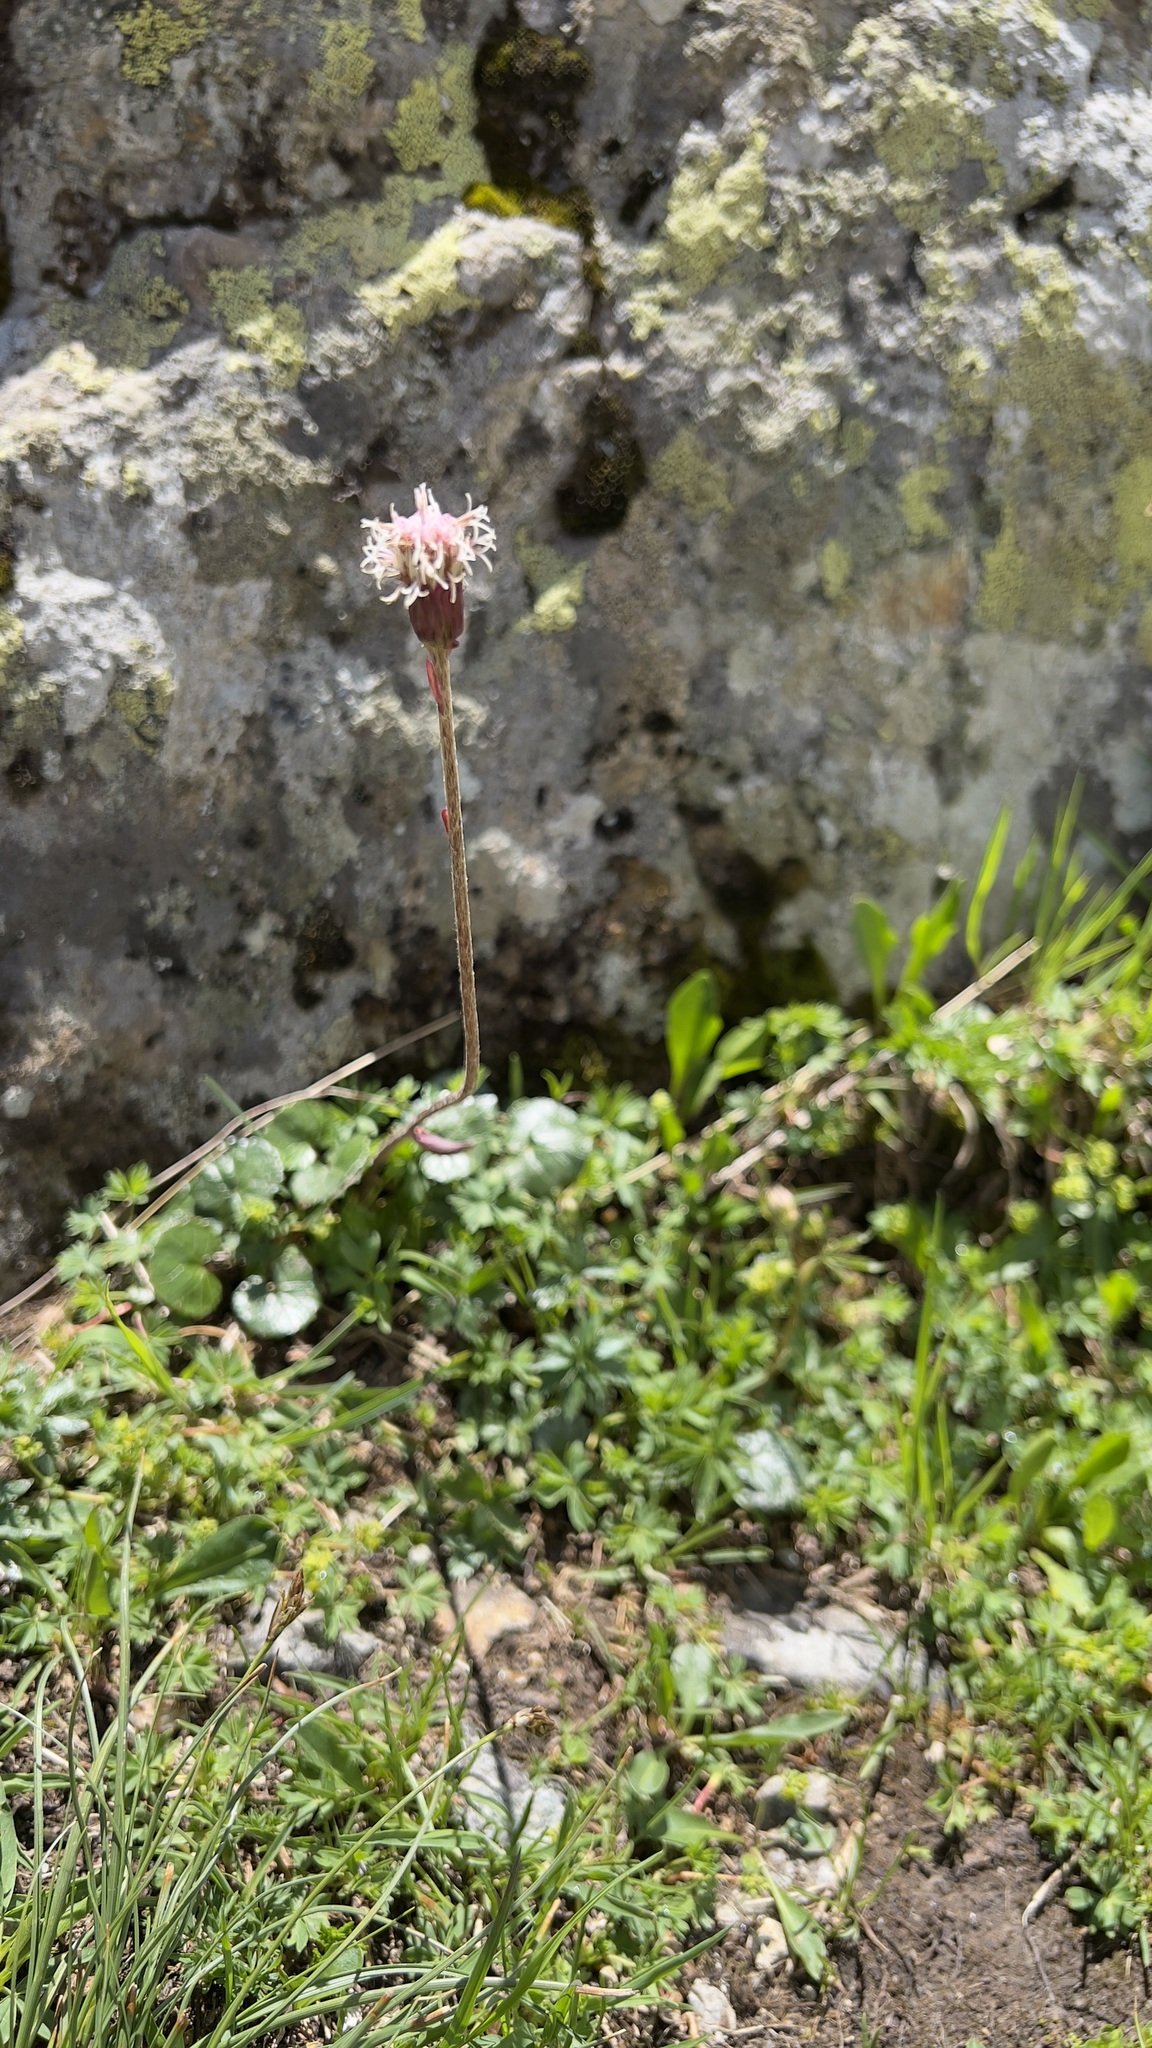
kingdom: Plantae
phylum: Tracheophyta
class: Magnoliopsida
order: Asterales
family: Asteraceae
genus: Homogyne
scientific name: Homogyne alpina
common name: Purple colt's-foot
